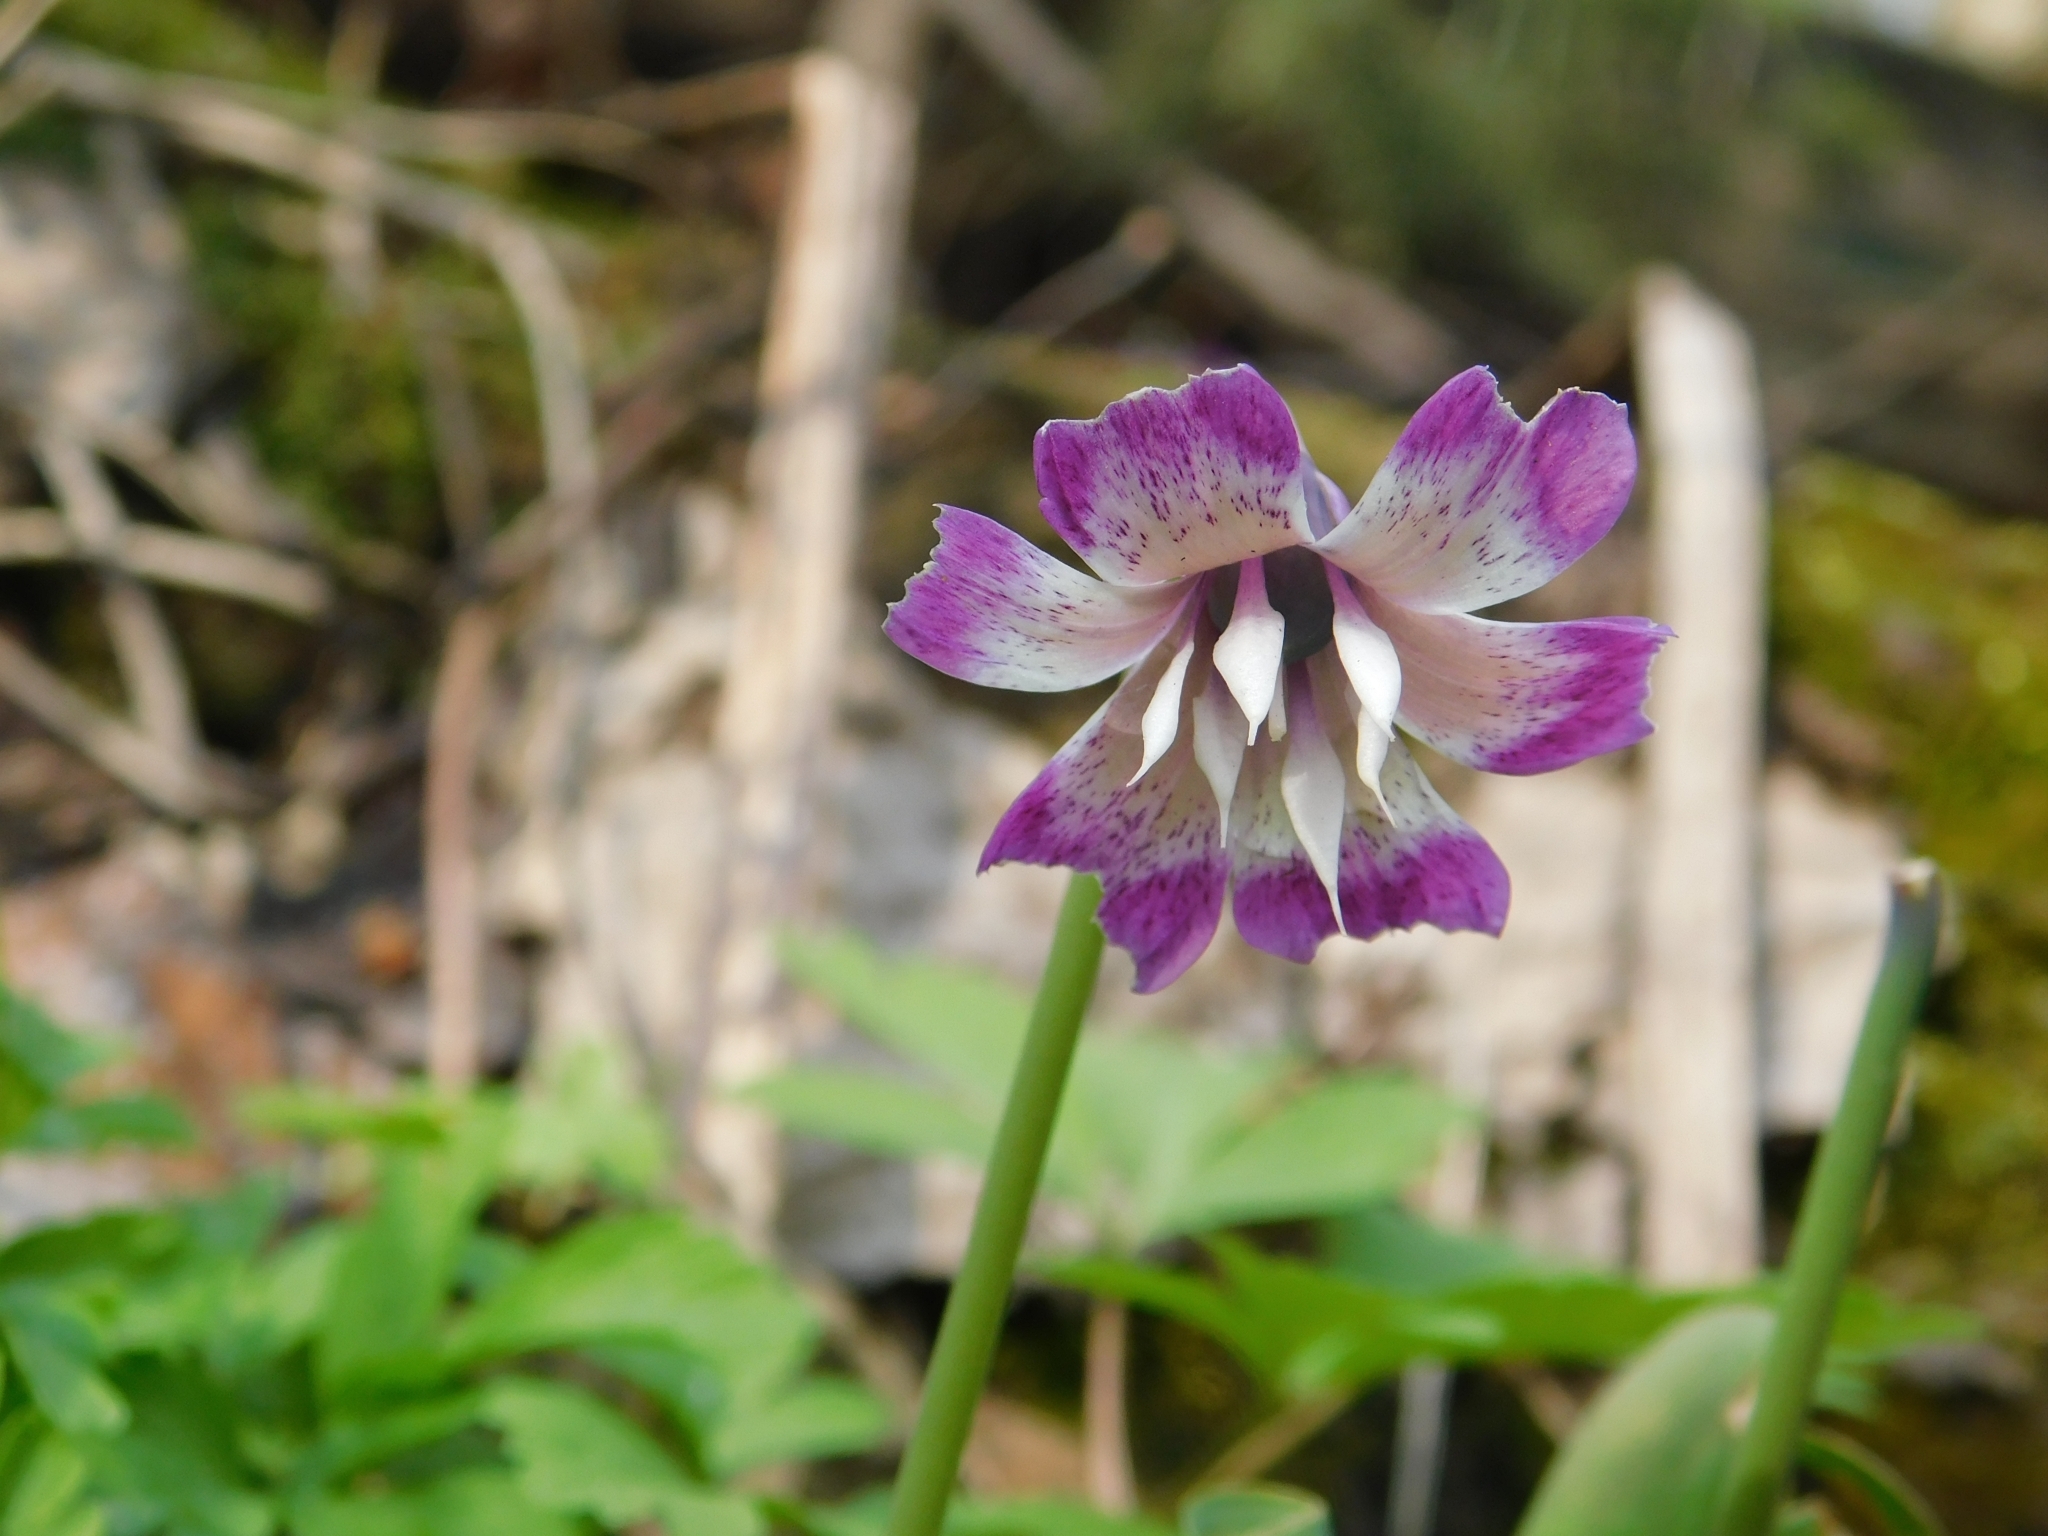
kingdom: Plantae
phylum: Tracheophyta
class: Liliopsida
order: Liliales
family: Liliaceae
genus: Erythronium
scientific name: Erythronium sibiricum
